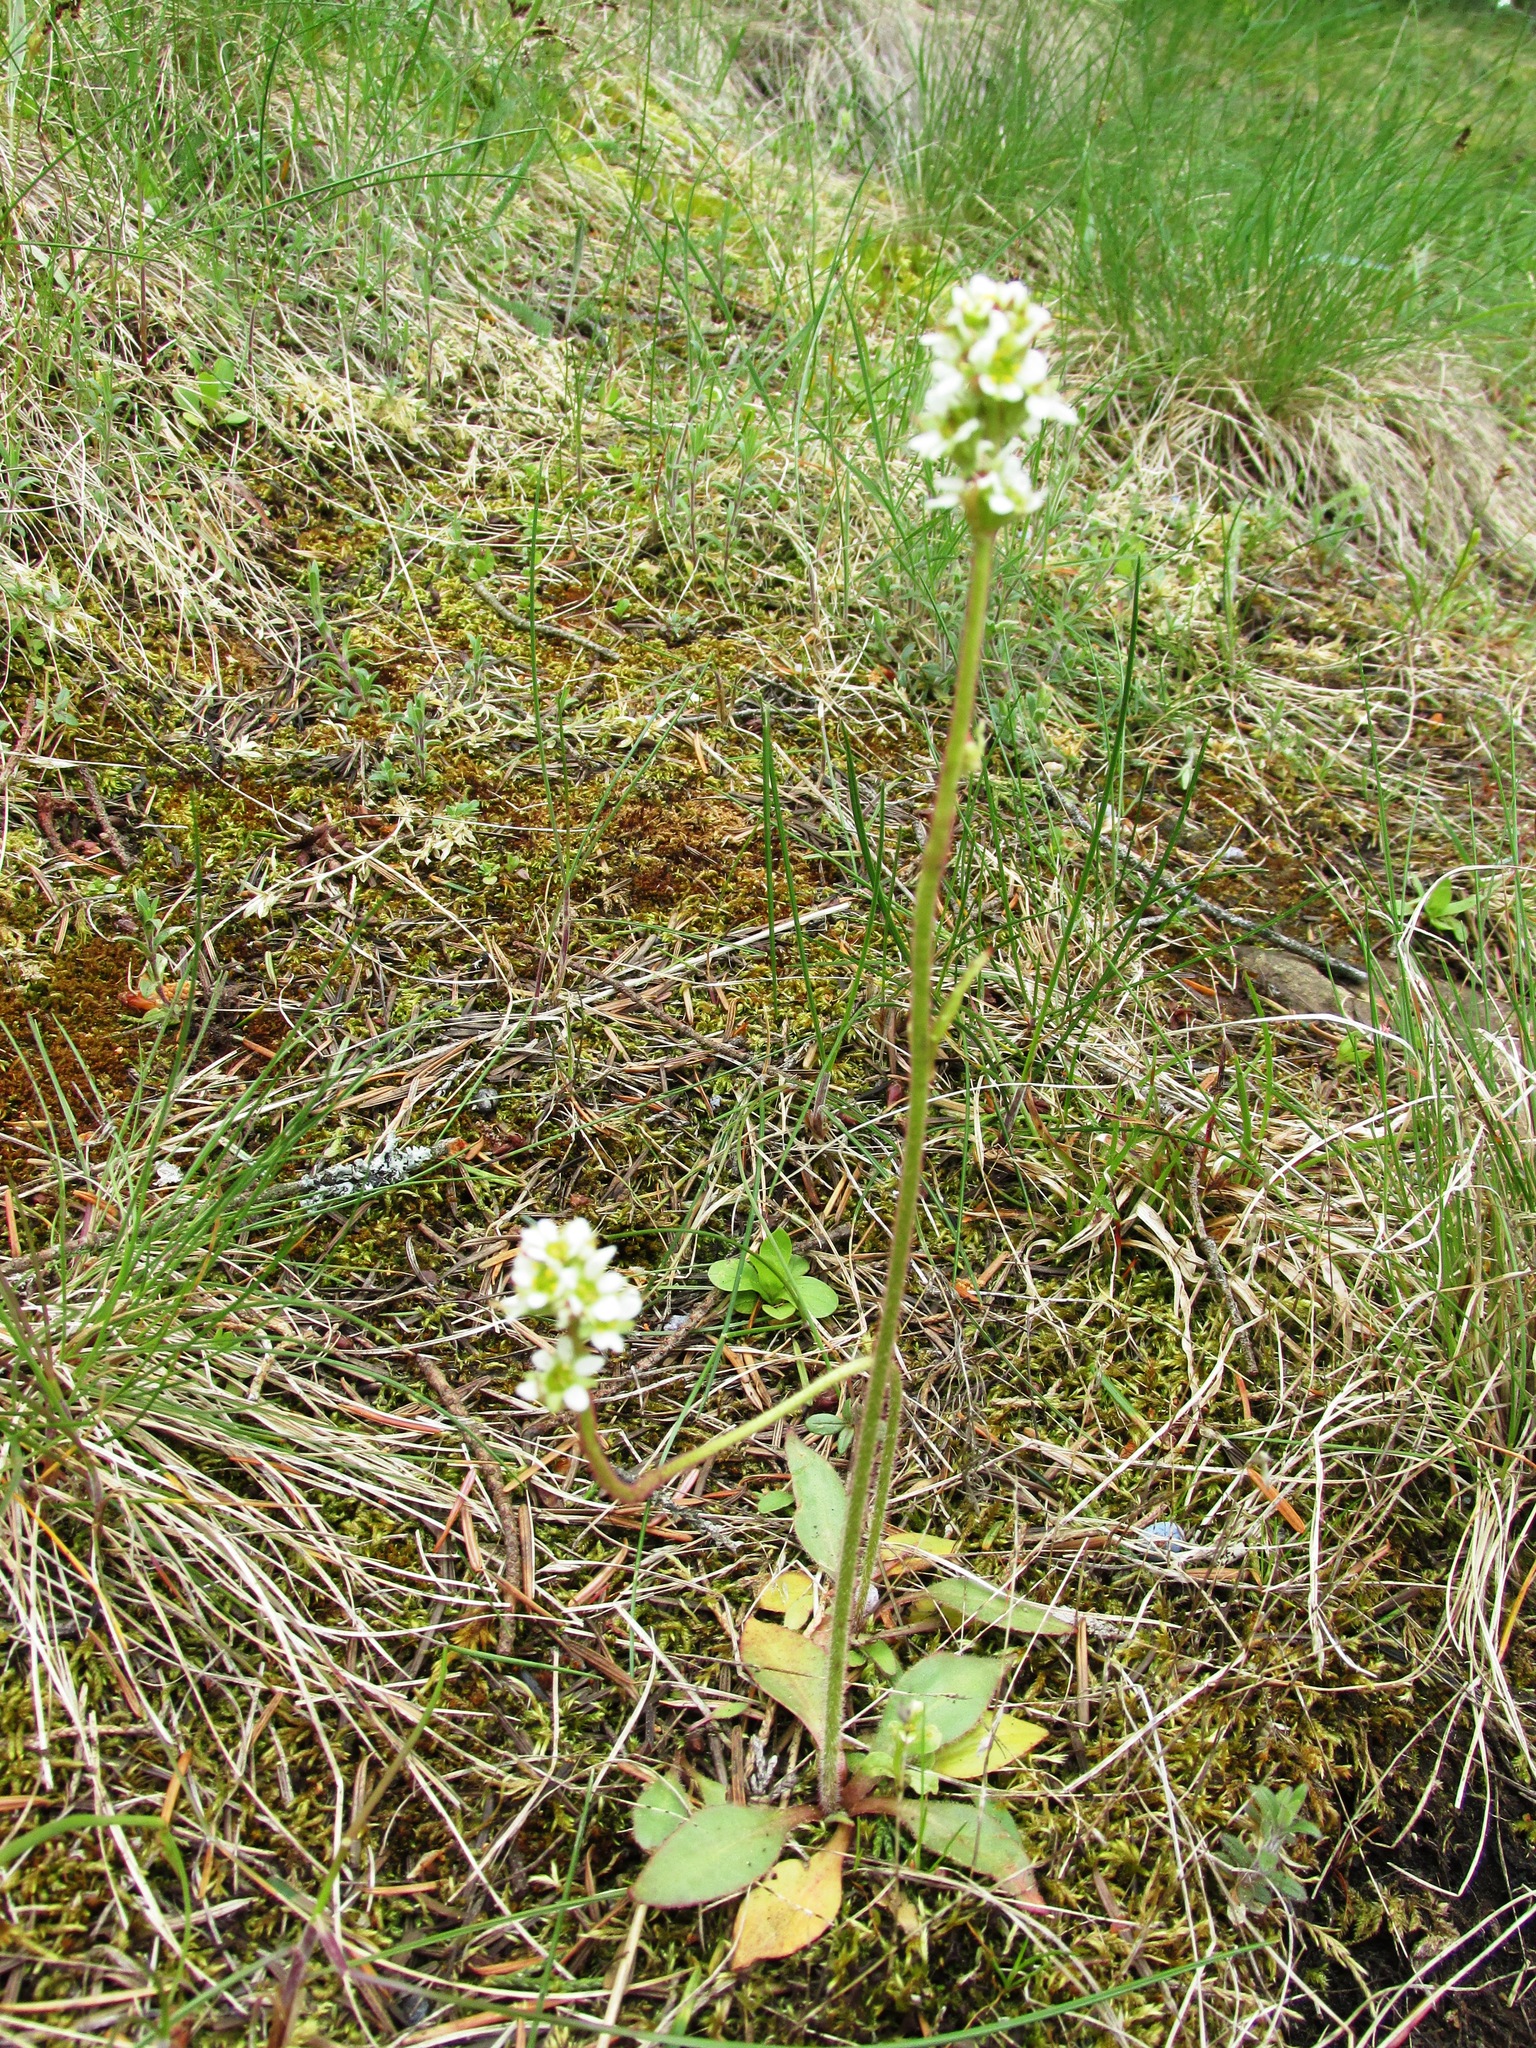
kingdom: Plantae
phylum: Tracheophyta
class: Magnoliopsida
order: Saxifragales
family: Saxifragaceae
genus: Micranthes
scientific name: Micranthes integrifolia
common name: Wholeleaf saxifrage
